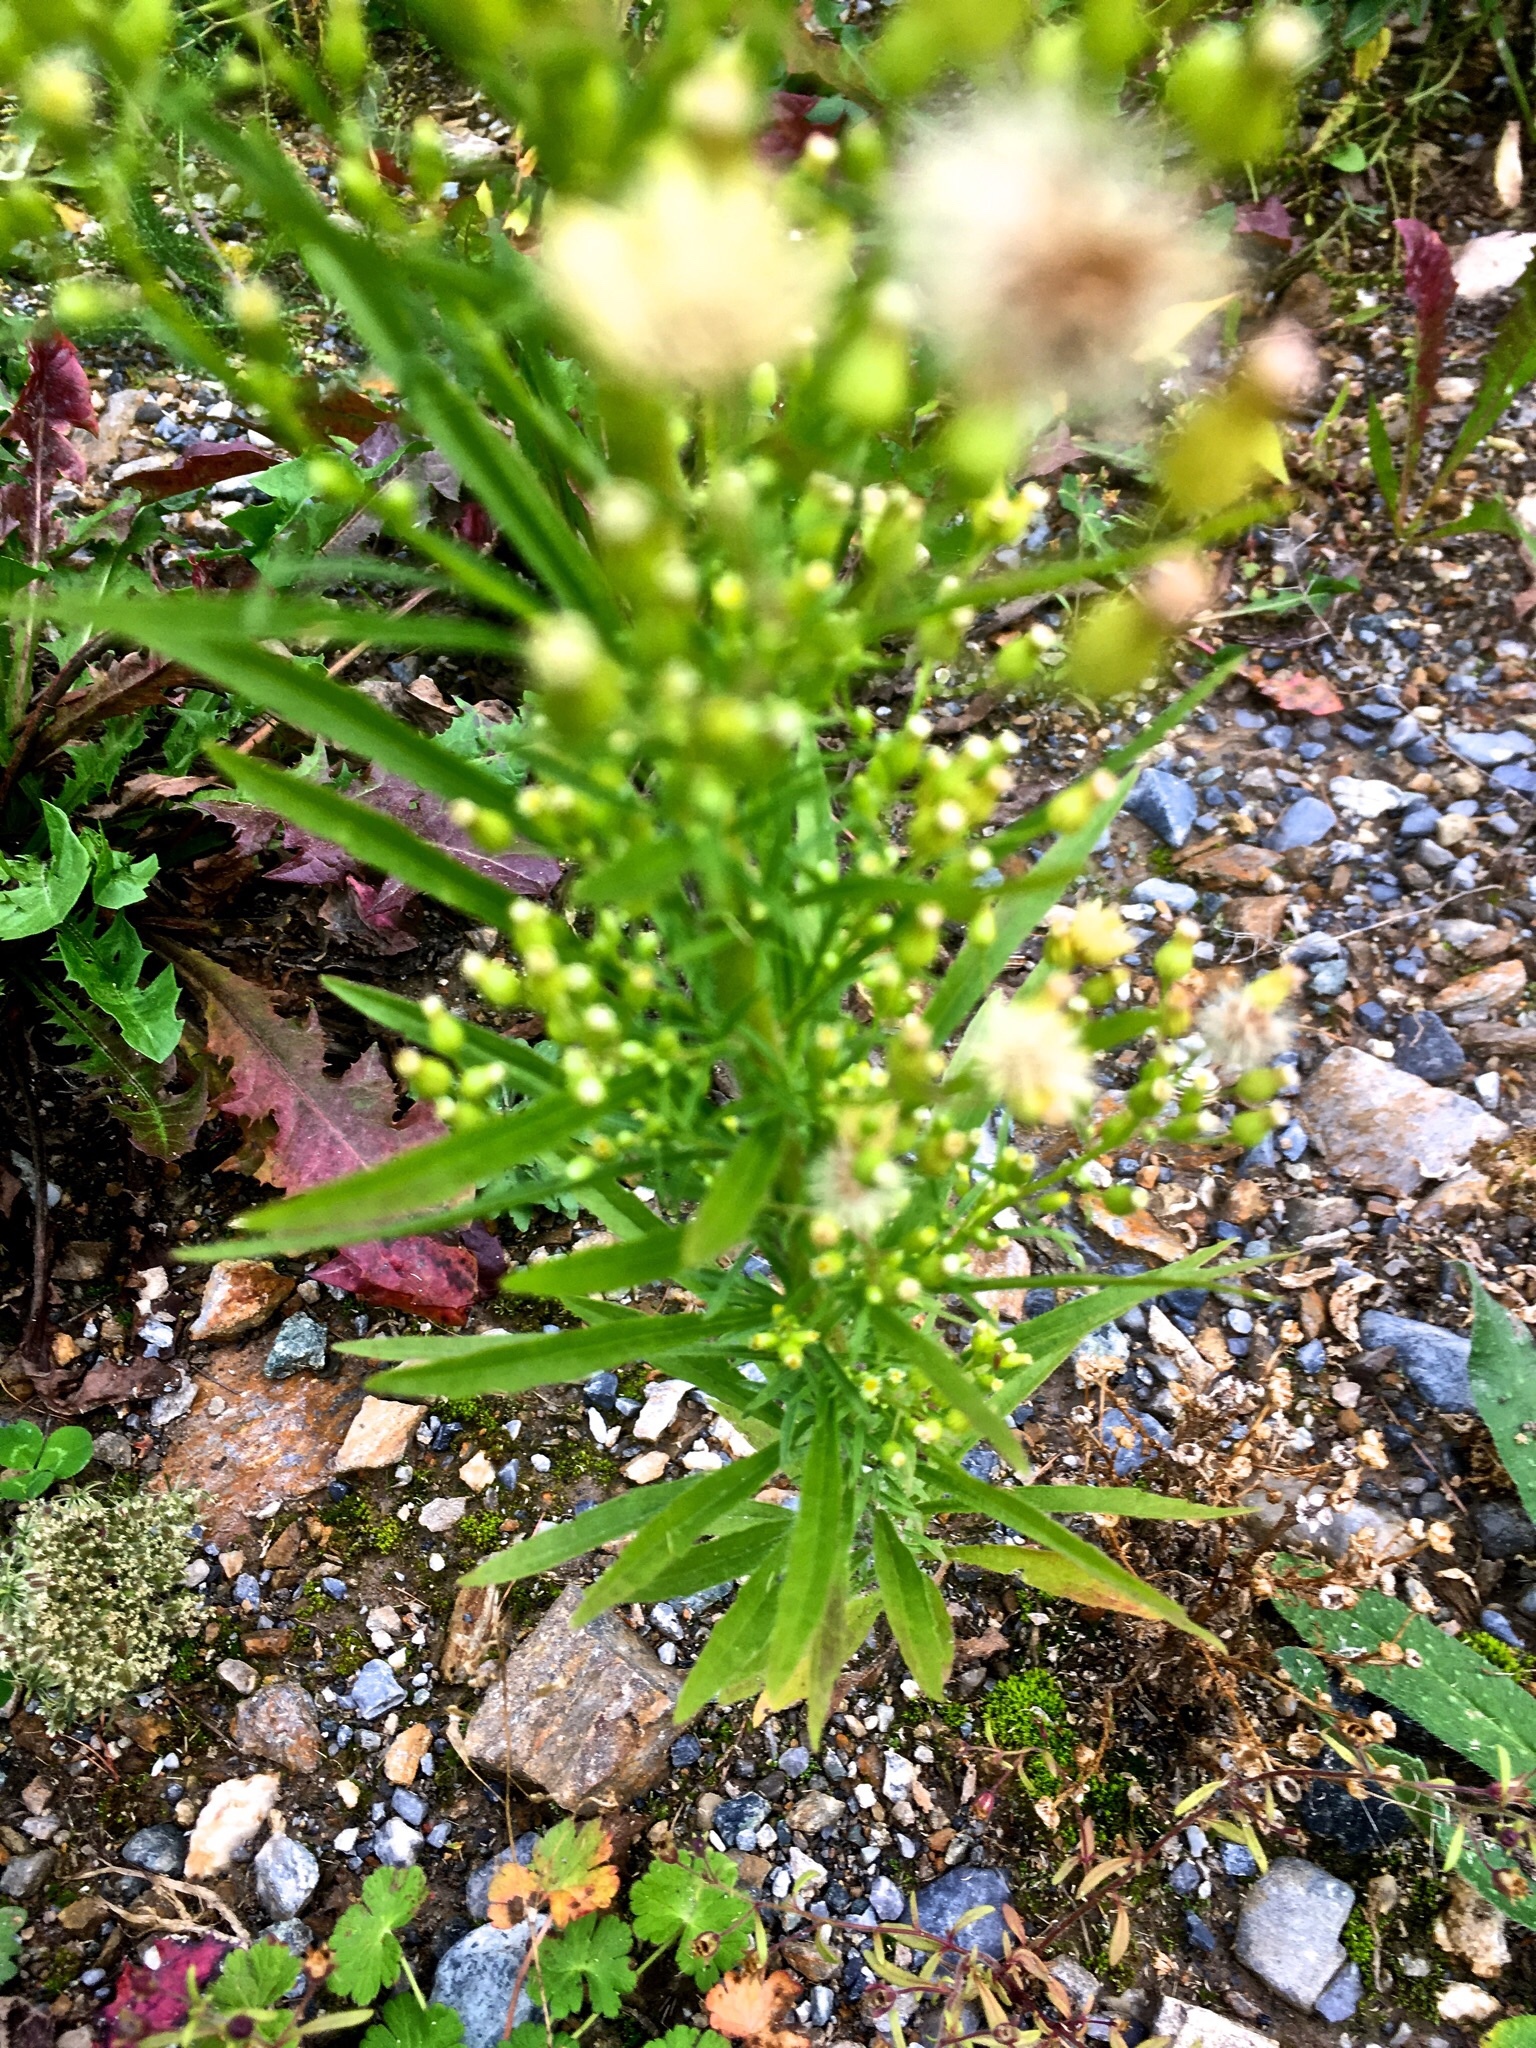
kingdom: Plantae
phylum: Tracheophyta
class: Magnoliopsida
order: Asterales
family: Asteraceae
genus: Erigeron
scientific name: Erigeron canadensis
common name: Canadian fleabane
